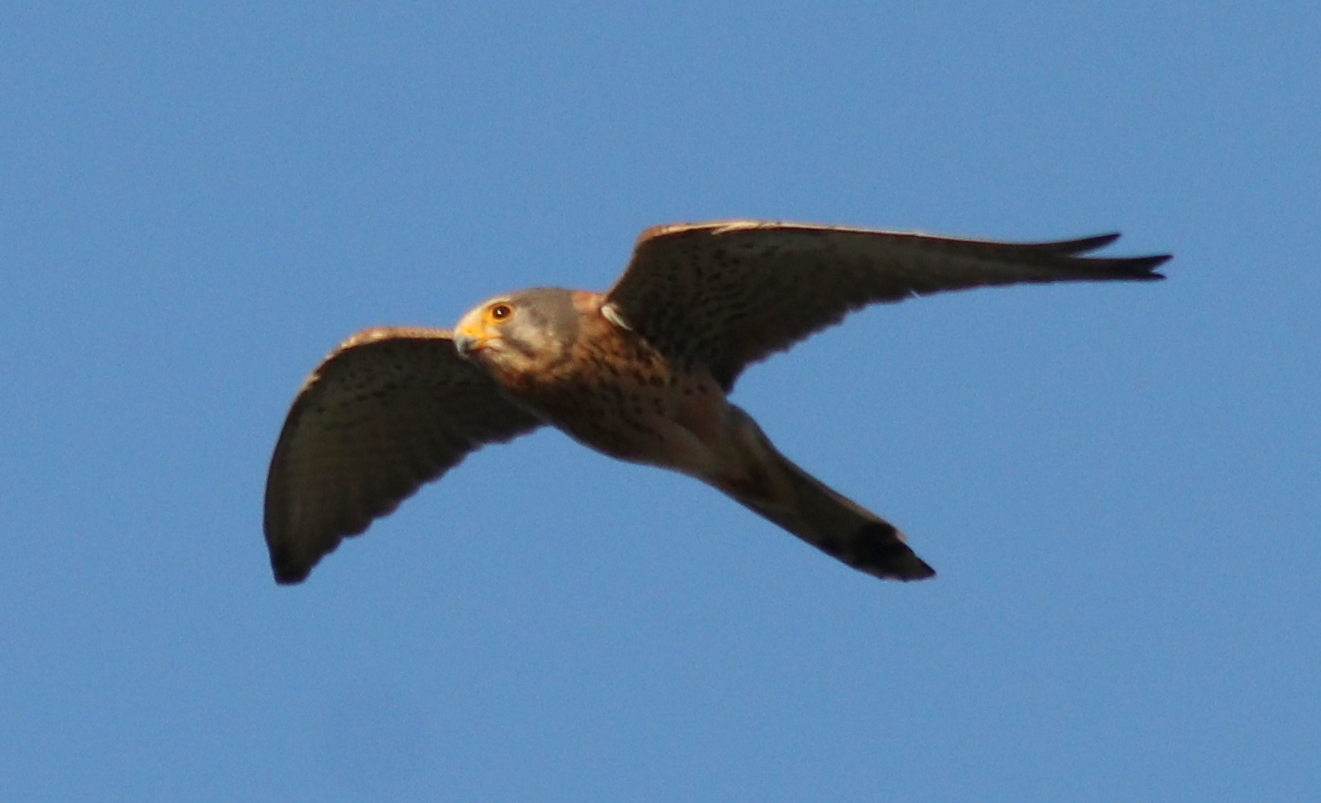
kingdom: Animalia
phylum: Chordata
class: Aves
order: Falconiformes
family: Falconidae
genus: Falco
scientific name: Falco tinnunculus
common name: Common kestrel
